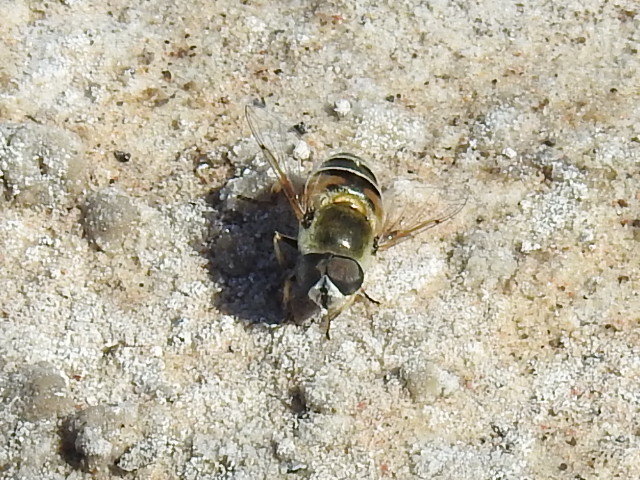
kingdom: Animalia
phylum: Arthropoda
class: Insecta
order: Diptera
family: Syrphidae
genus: Eristalis
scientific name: Eristalis stipator
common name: Yellow-shouldered drone fly
